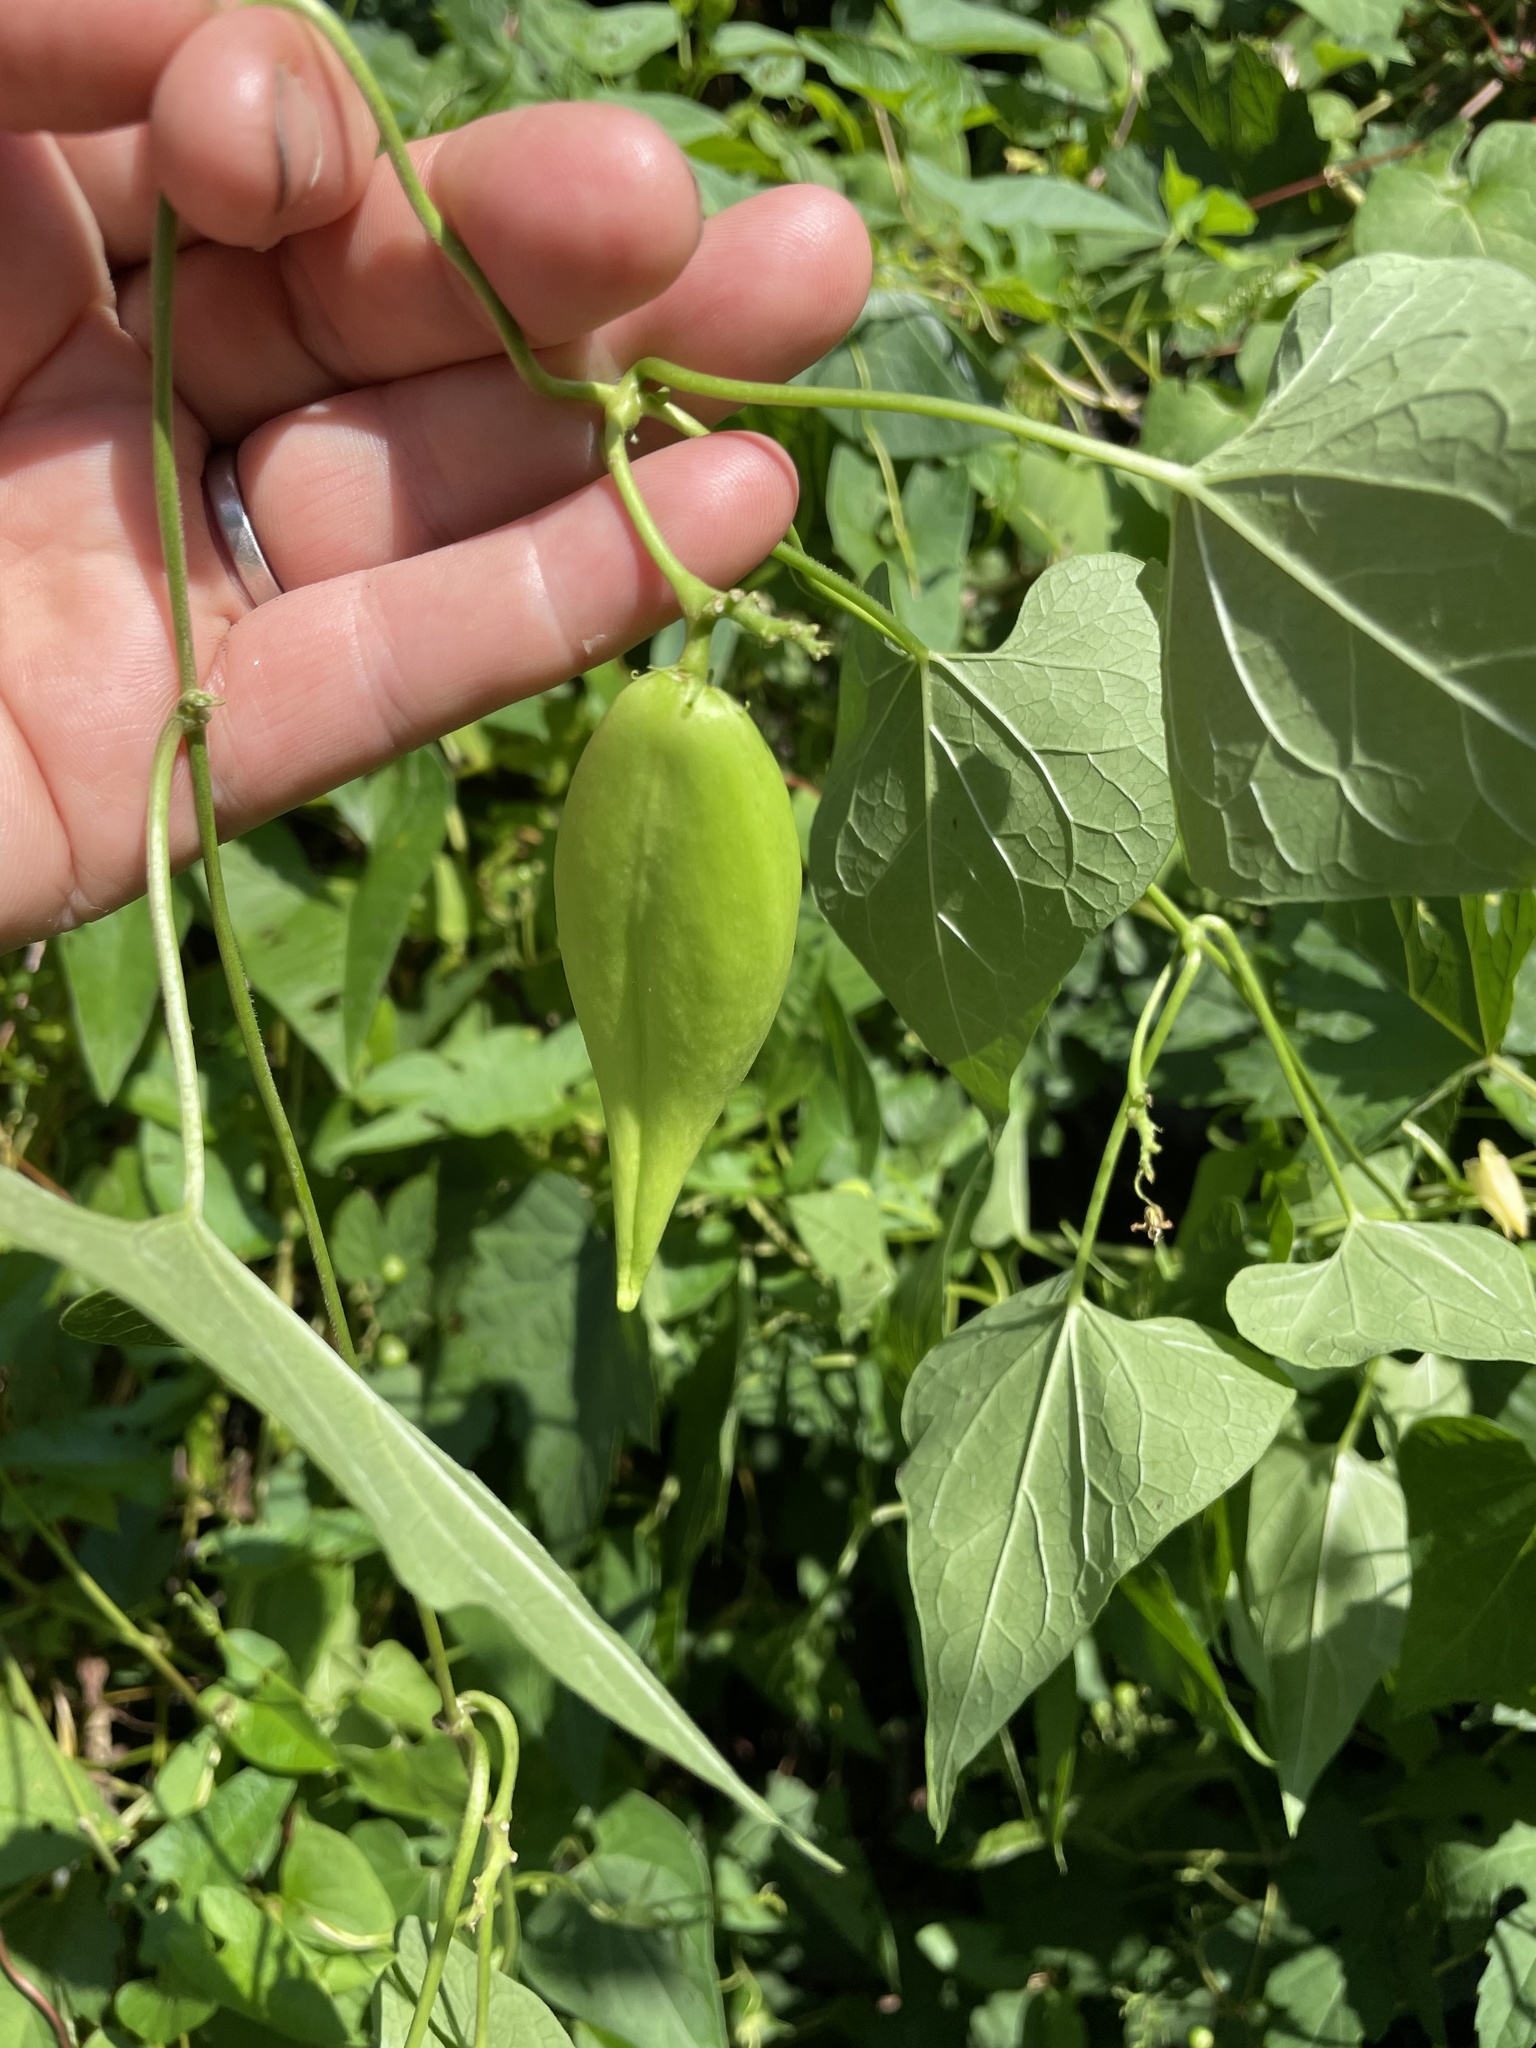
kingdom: Plantae
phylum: Tracheophyta
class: Magnoliopsida
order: Gentianales
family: Apocynaceae
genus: Cynanchum
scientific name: Cynanchum laeve
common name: Sandvine
